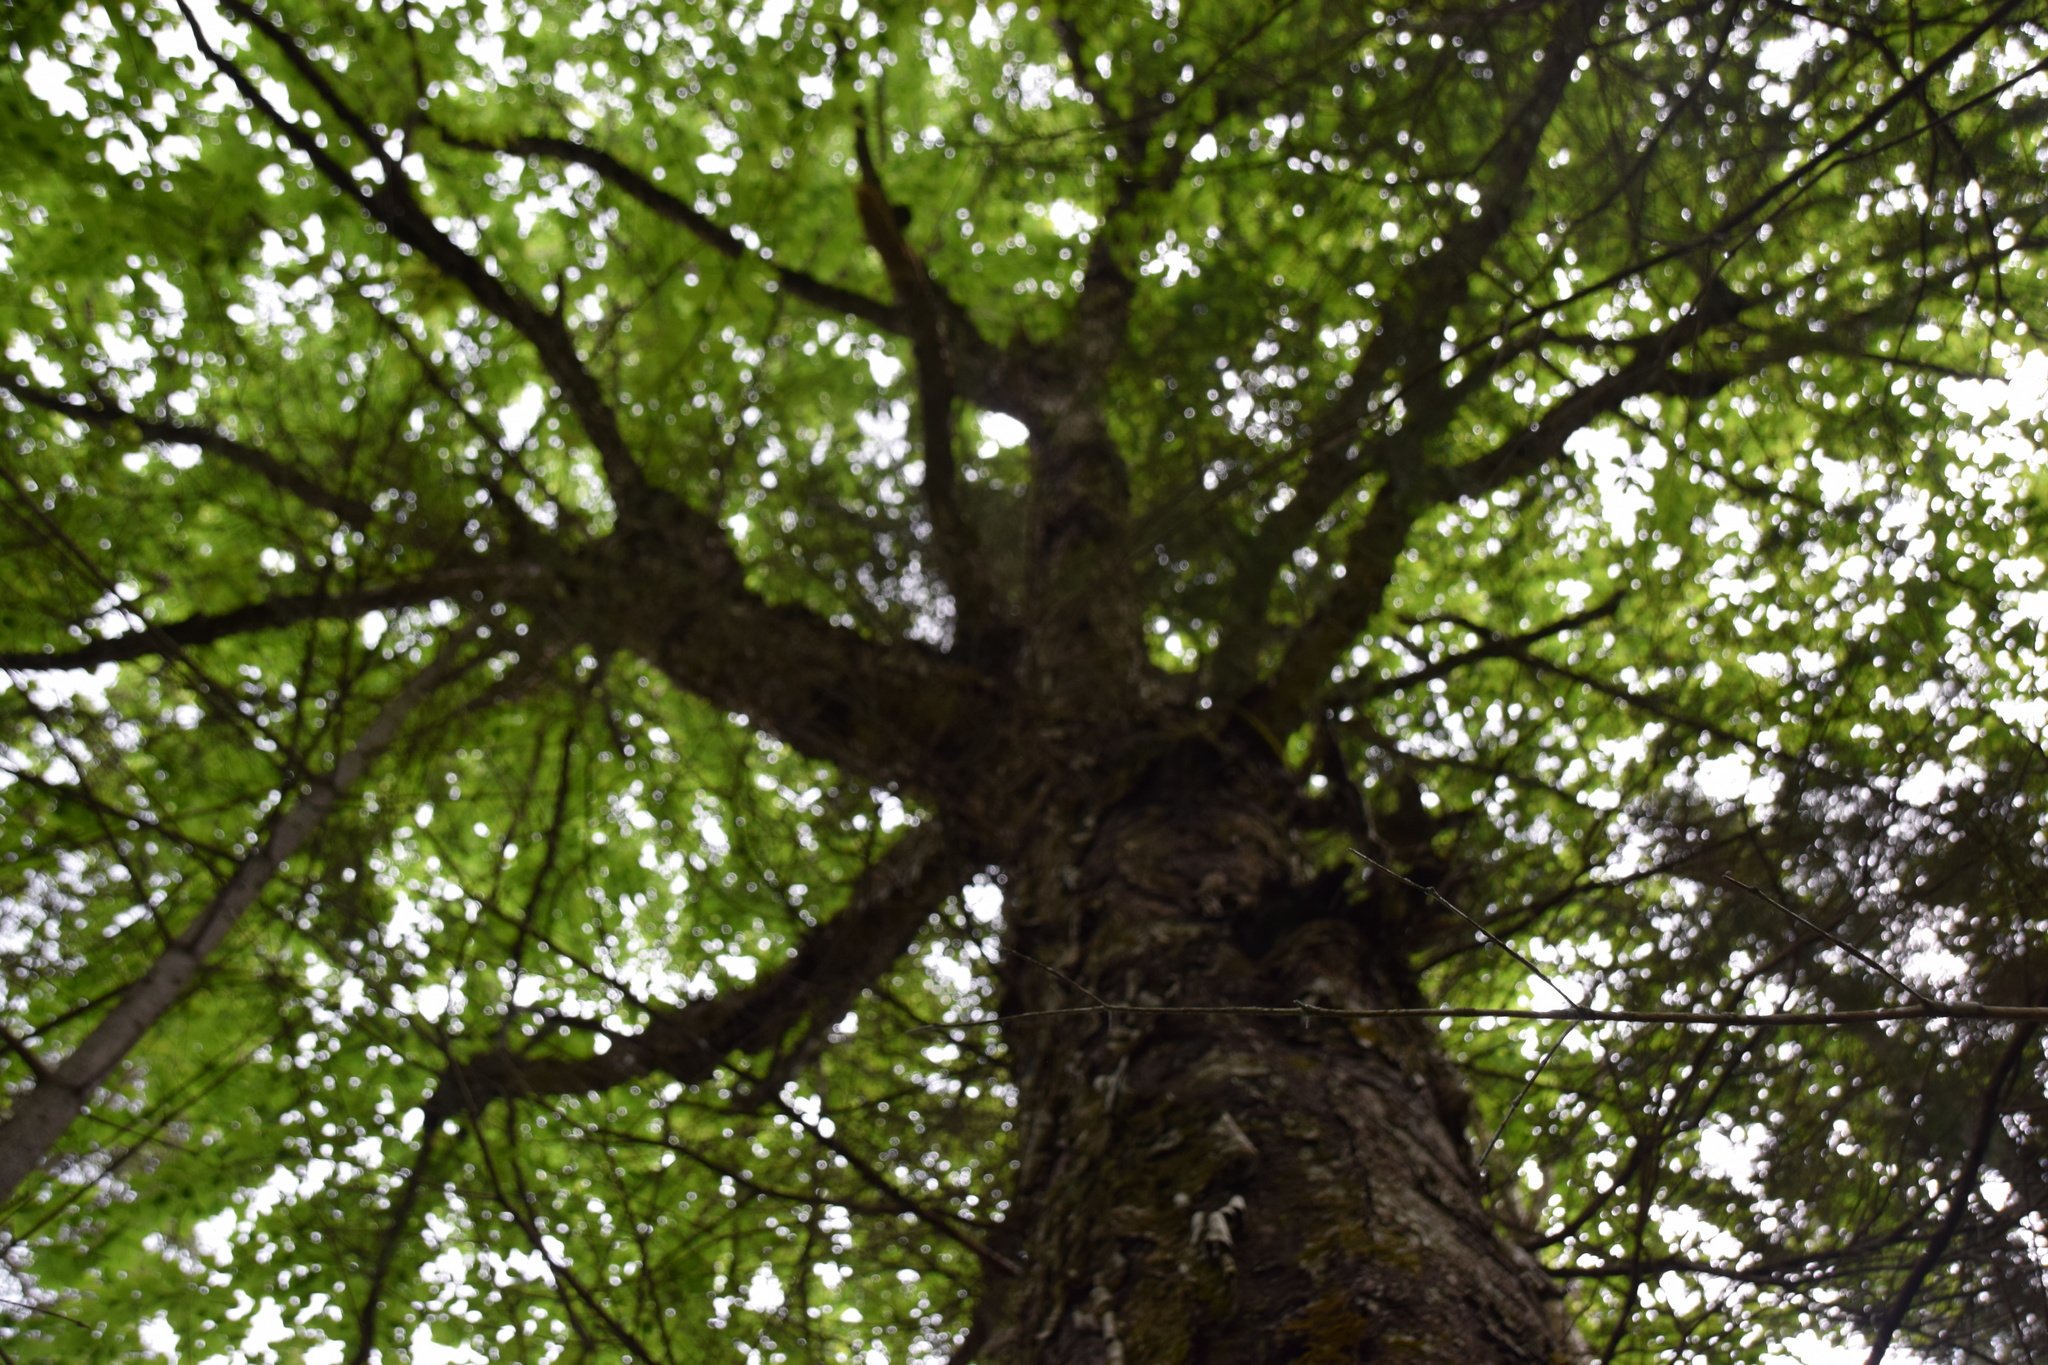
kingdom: Plantae
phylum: Tracheophyta
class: Magnoliopsida
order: Fagales
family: Betulaceae
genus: Betula
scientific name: Betula alleghaniensis
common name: Yellow birch
